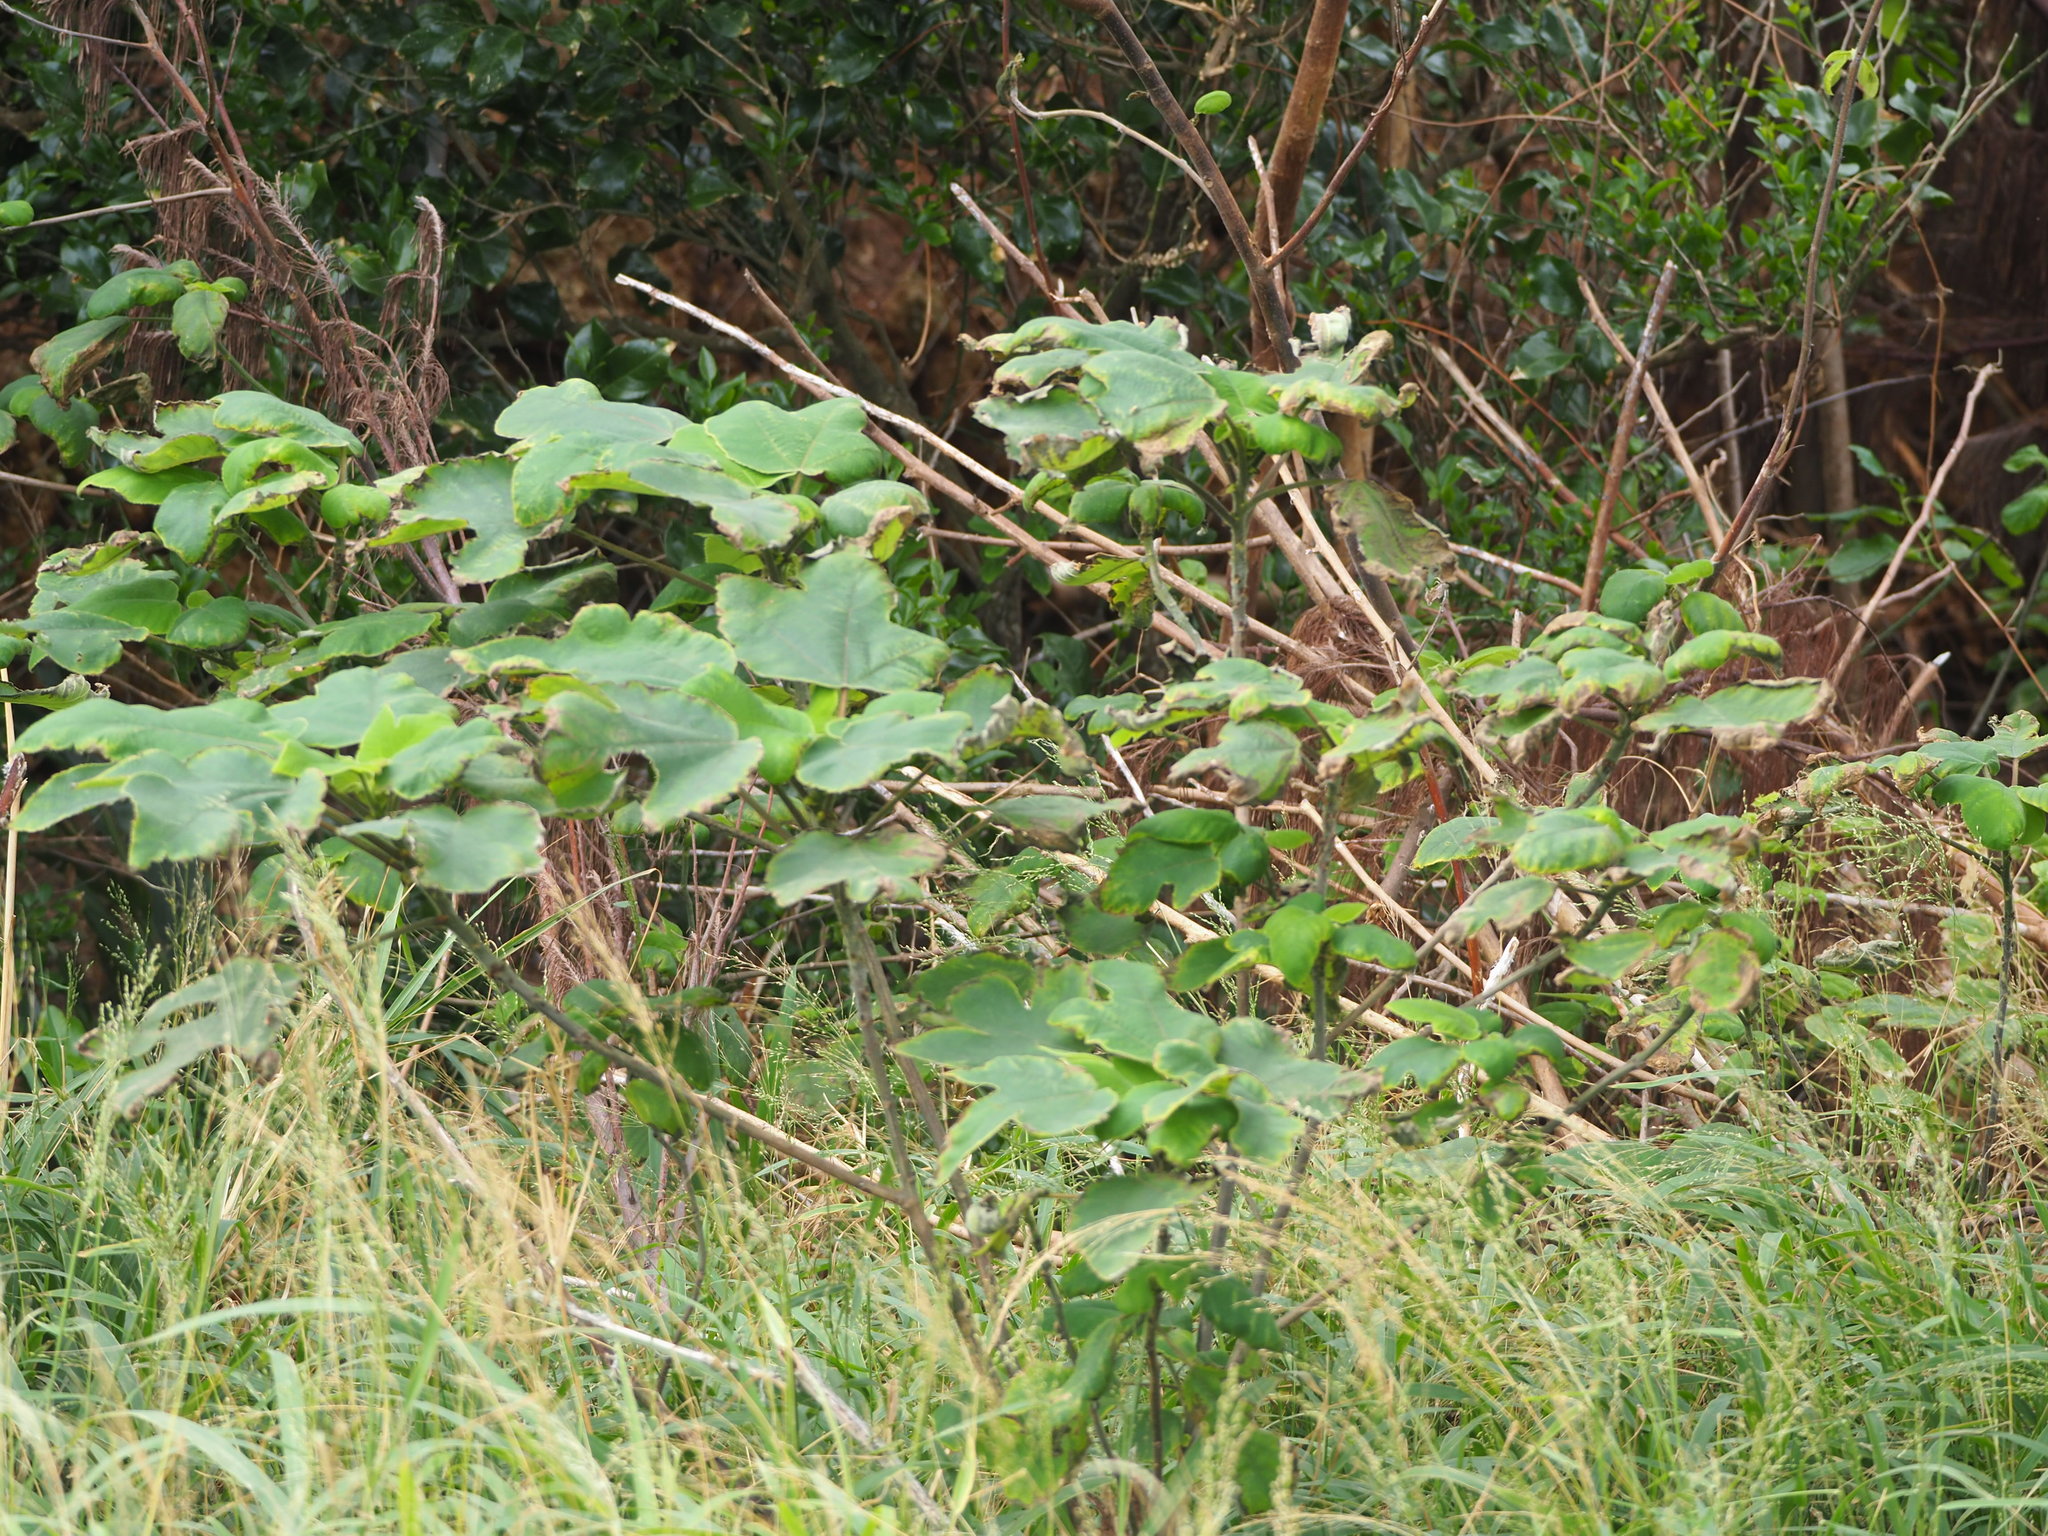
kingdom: Plantae
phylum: Tracheophyta
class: Magnoliopsida
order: Rosales
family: Moraceae
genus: Broussonetia
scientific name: Broussonetia papyrifera
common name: Paper mulberry
